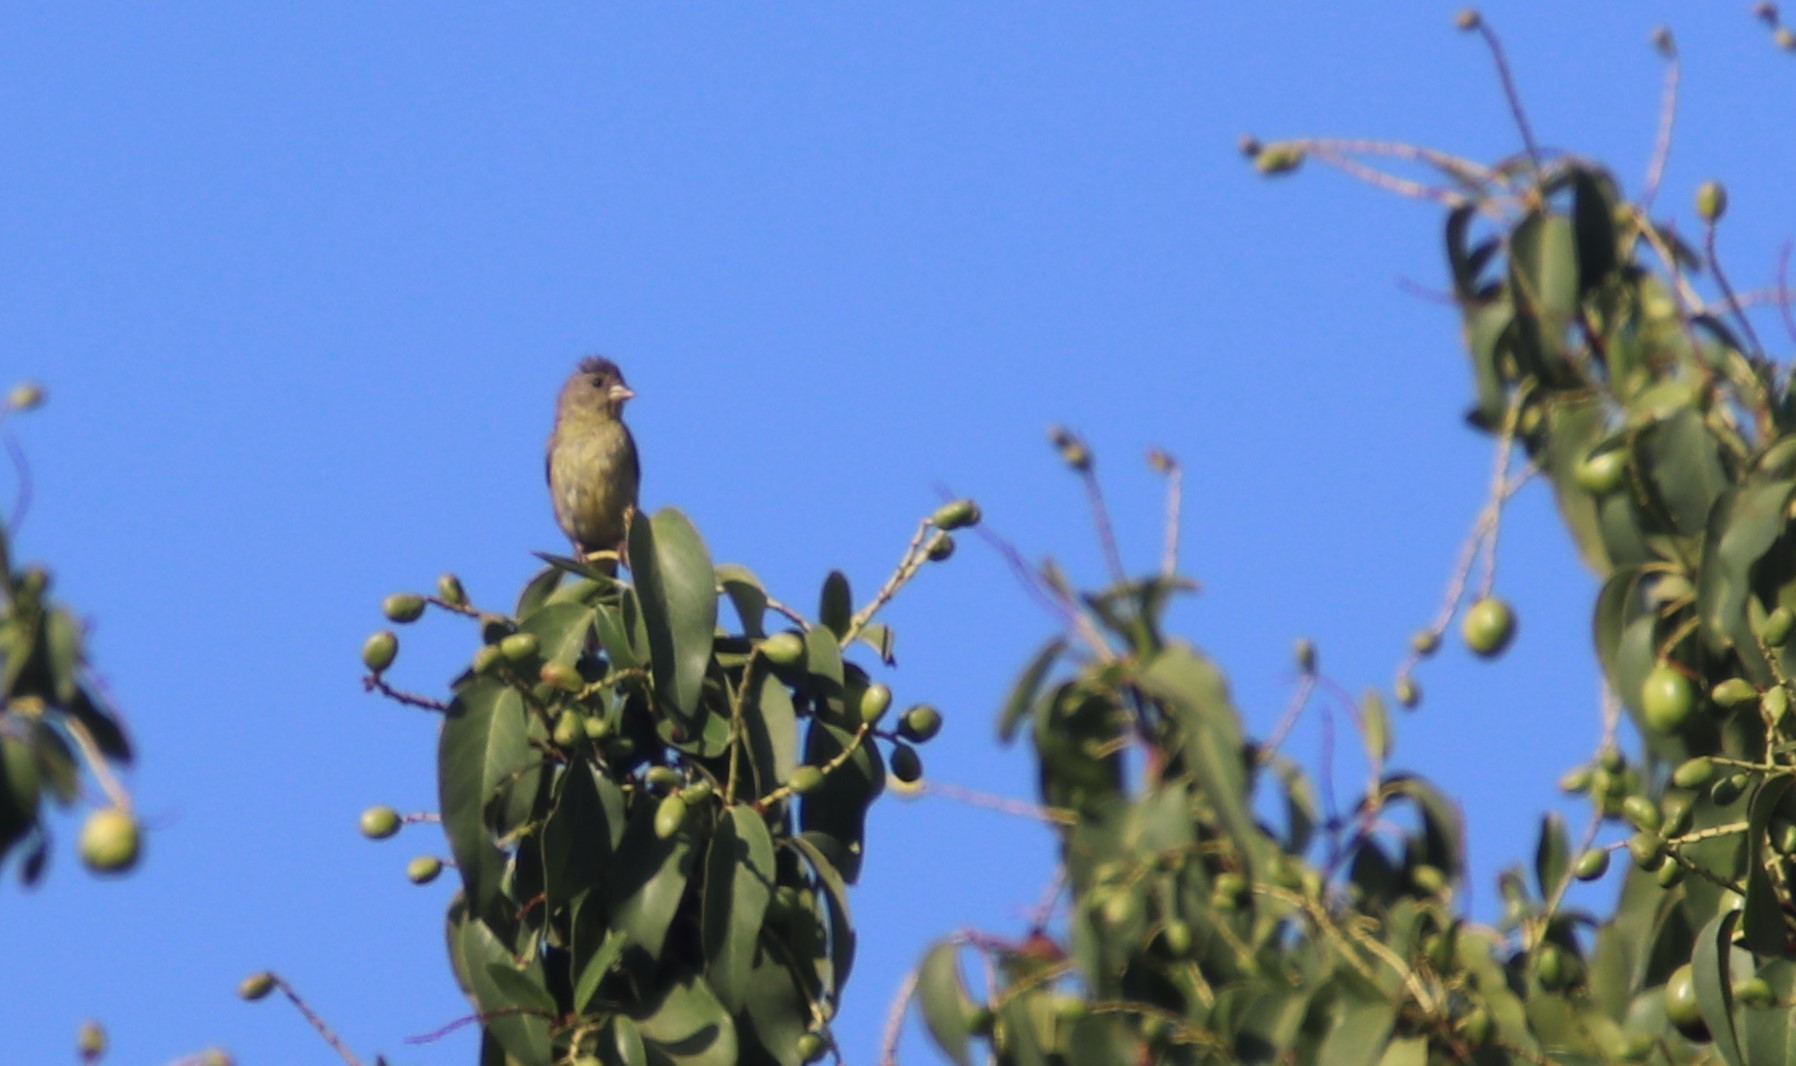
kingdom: Animalia
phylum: Chordata
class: Aves
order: Passeriformes
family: Fringillidae
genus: Spinus
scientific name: Spinus psaltria
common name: Lesser goldfinch
